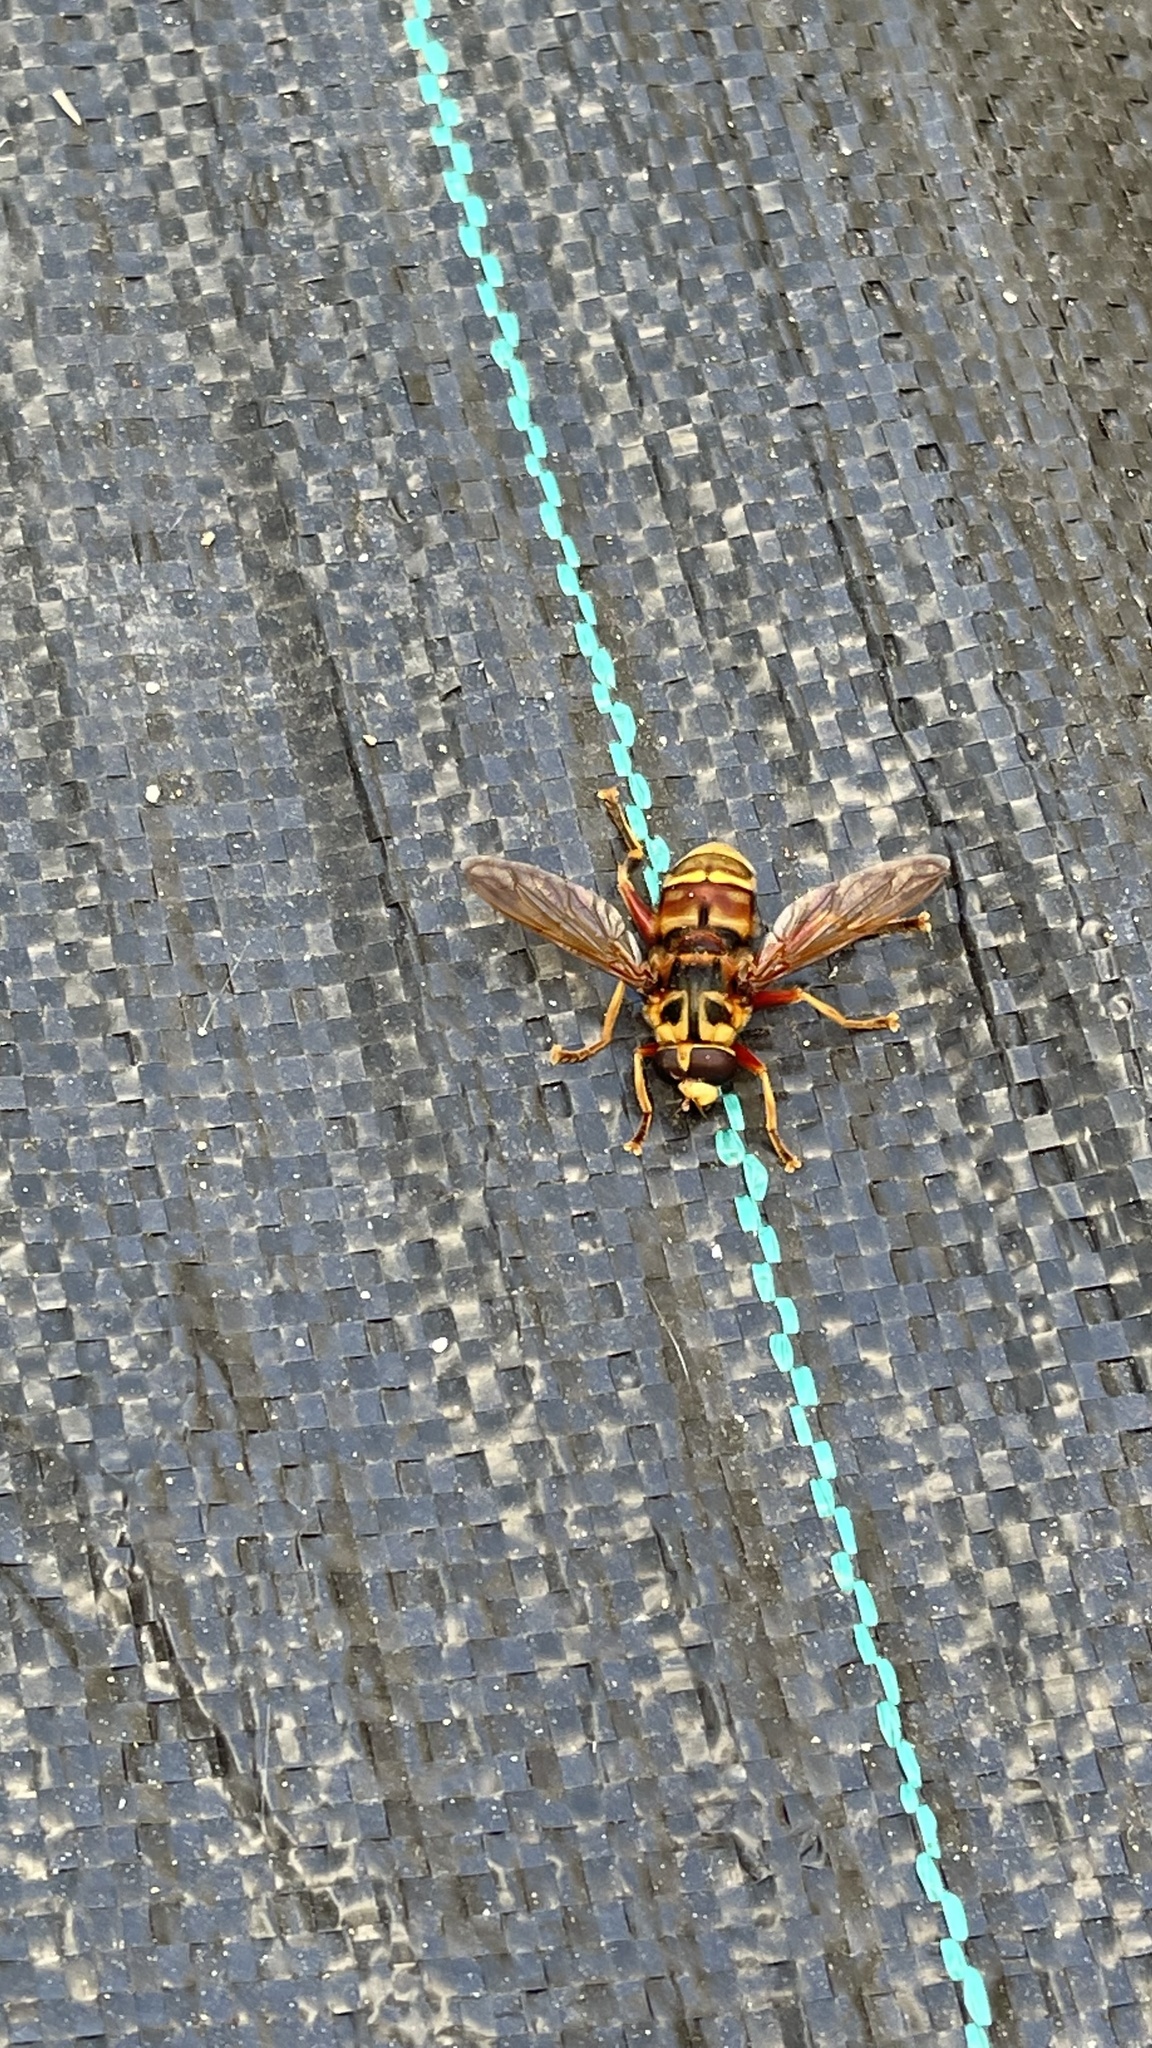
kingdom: Animalia
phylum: Arthropoda
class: Insecta
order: Diptera
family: Syrphidae
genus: Milesia
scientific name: Milesia crabroniformis
